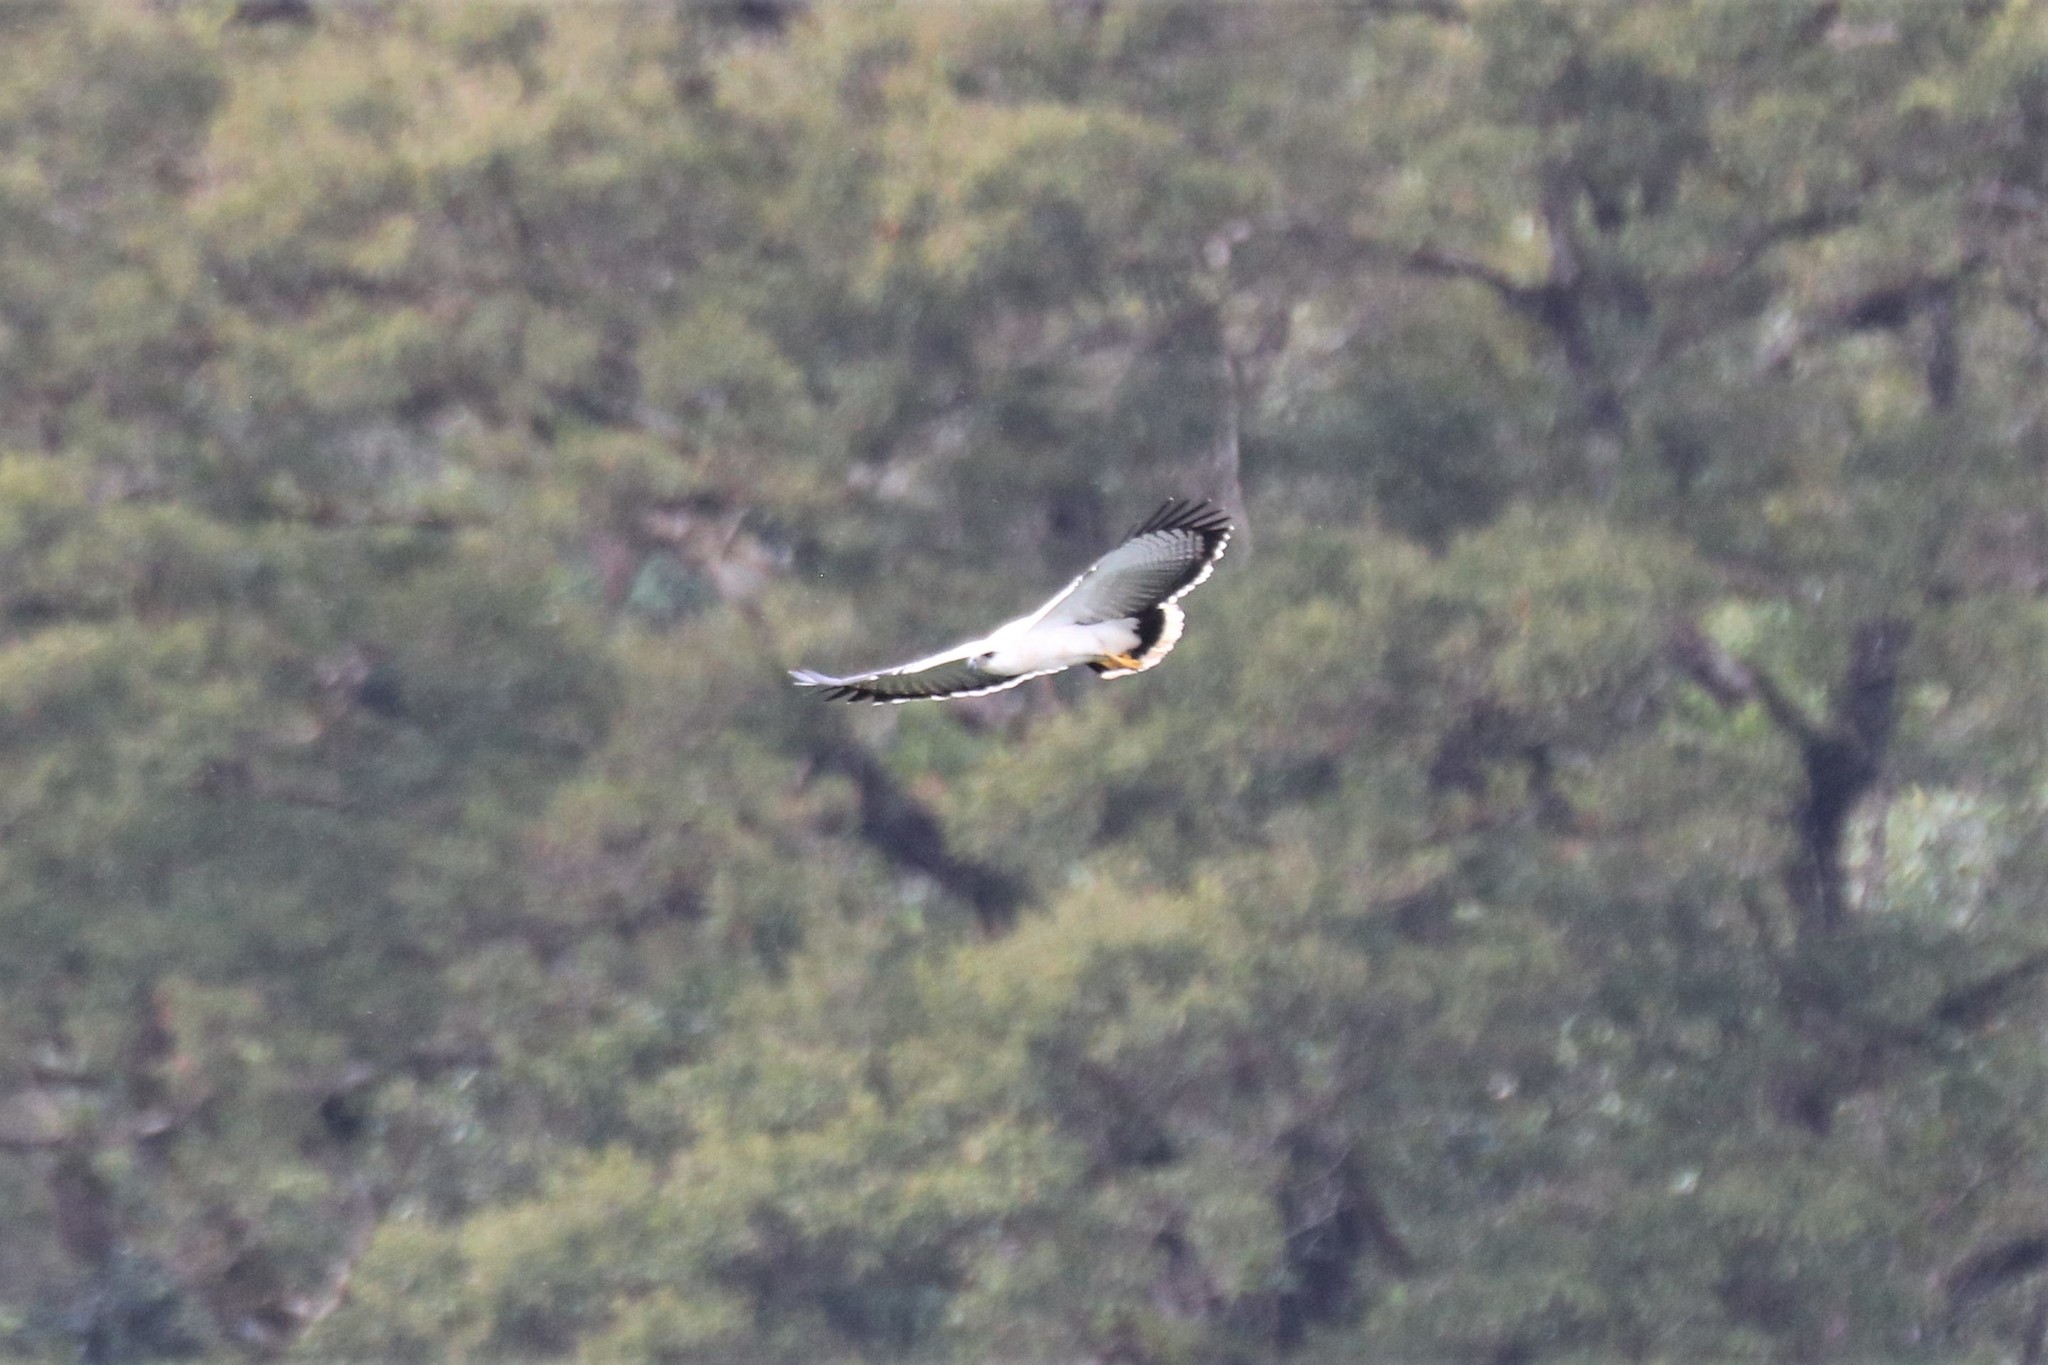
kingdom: Animalia
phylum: Chordata
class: Aves
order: Accipitriformes
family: Accipitridae
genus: Leucopternis
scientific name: Leucopternis albicollis
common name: White hawk
